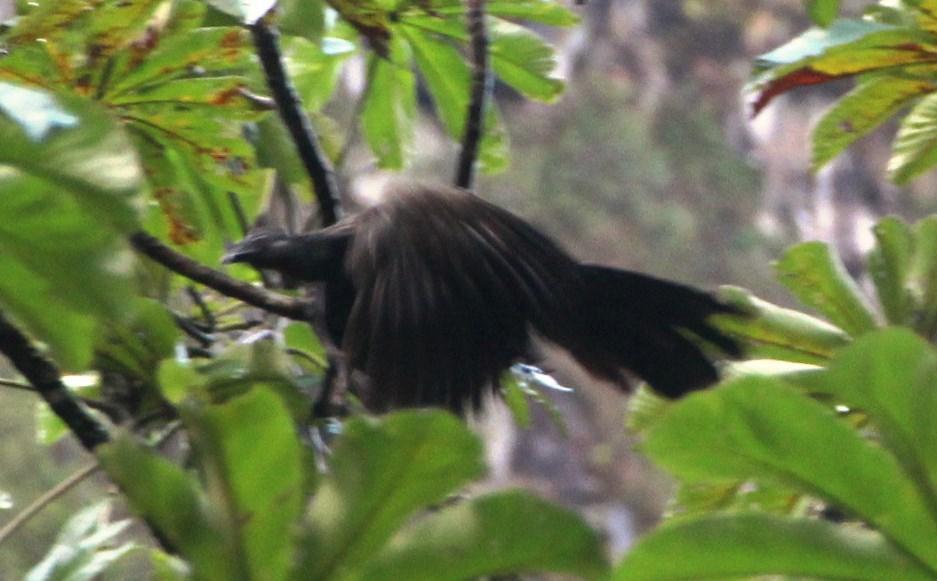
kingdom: Animalia
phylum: Chordata
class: Aves
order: Galliformes
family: Cracidae
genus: Penelope
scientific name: Penelope montagnii
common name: Andean guan
